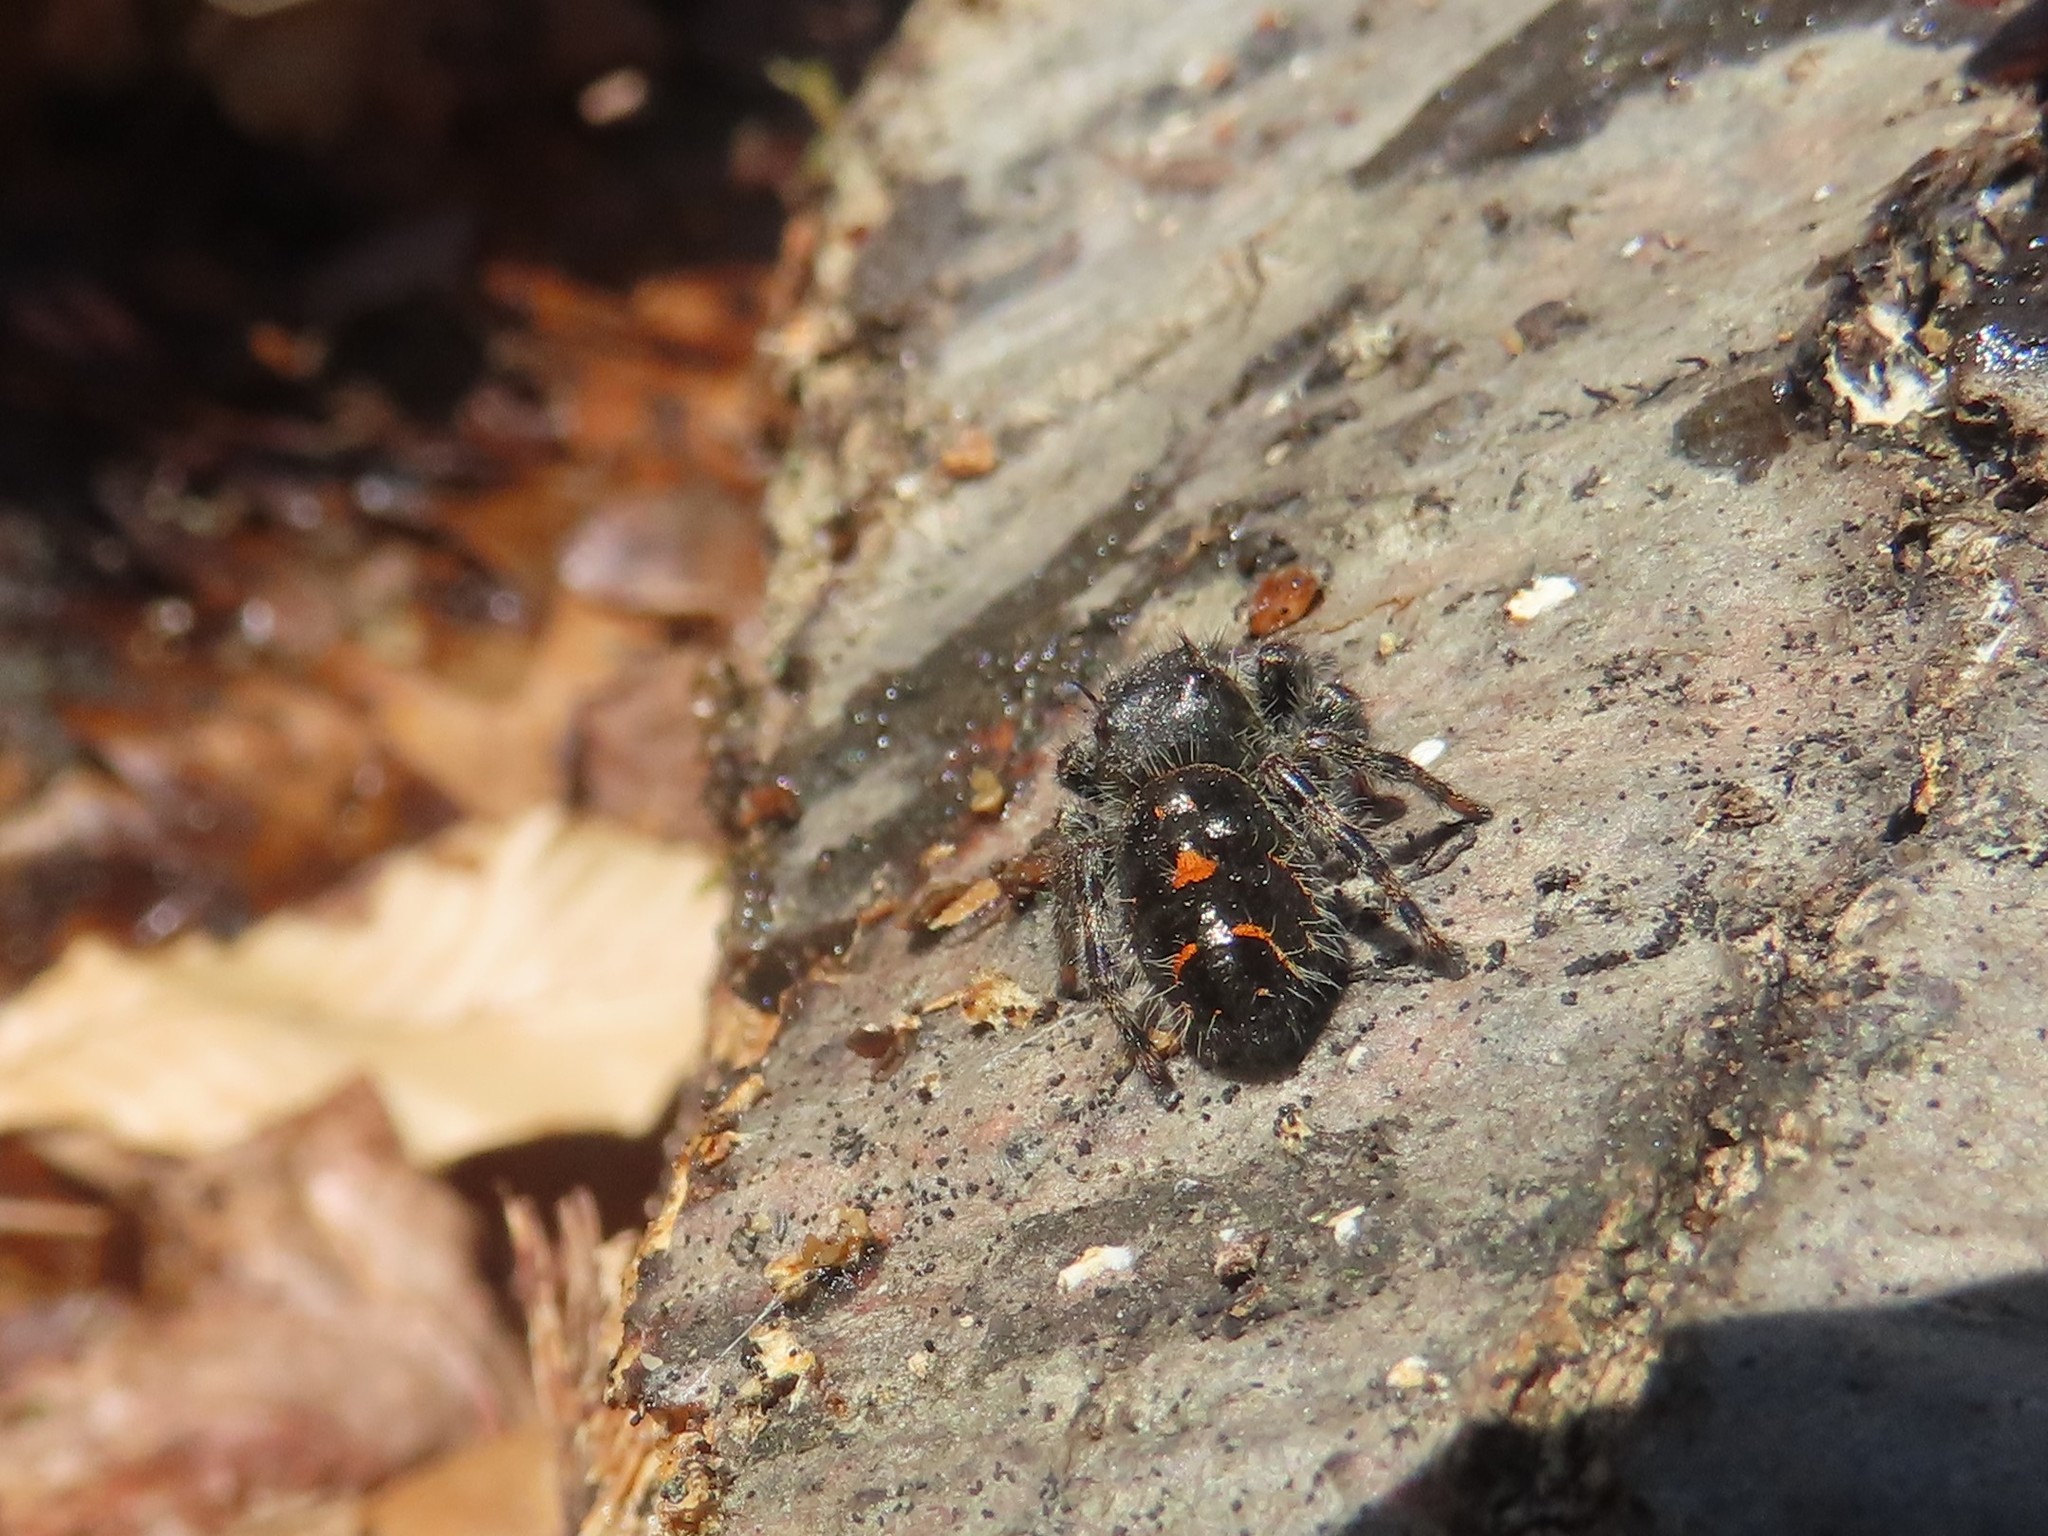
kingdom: Animalia
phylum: Arthropoda
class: Arachnida
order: Araneae
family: Salticidae
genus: Phidippus
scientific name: Phidippus audax
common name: Bold jumper
